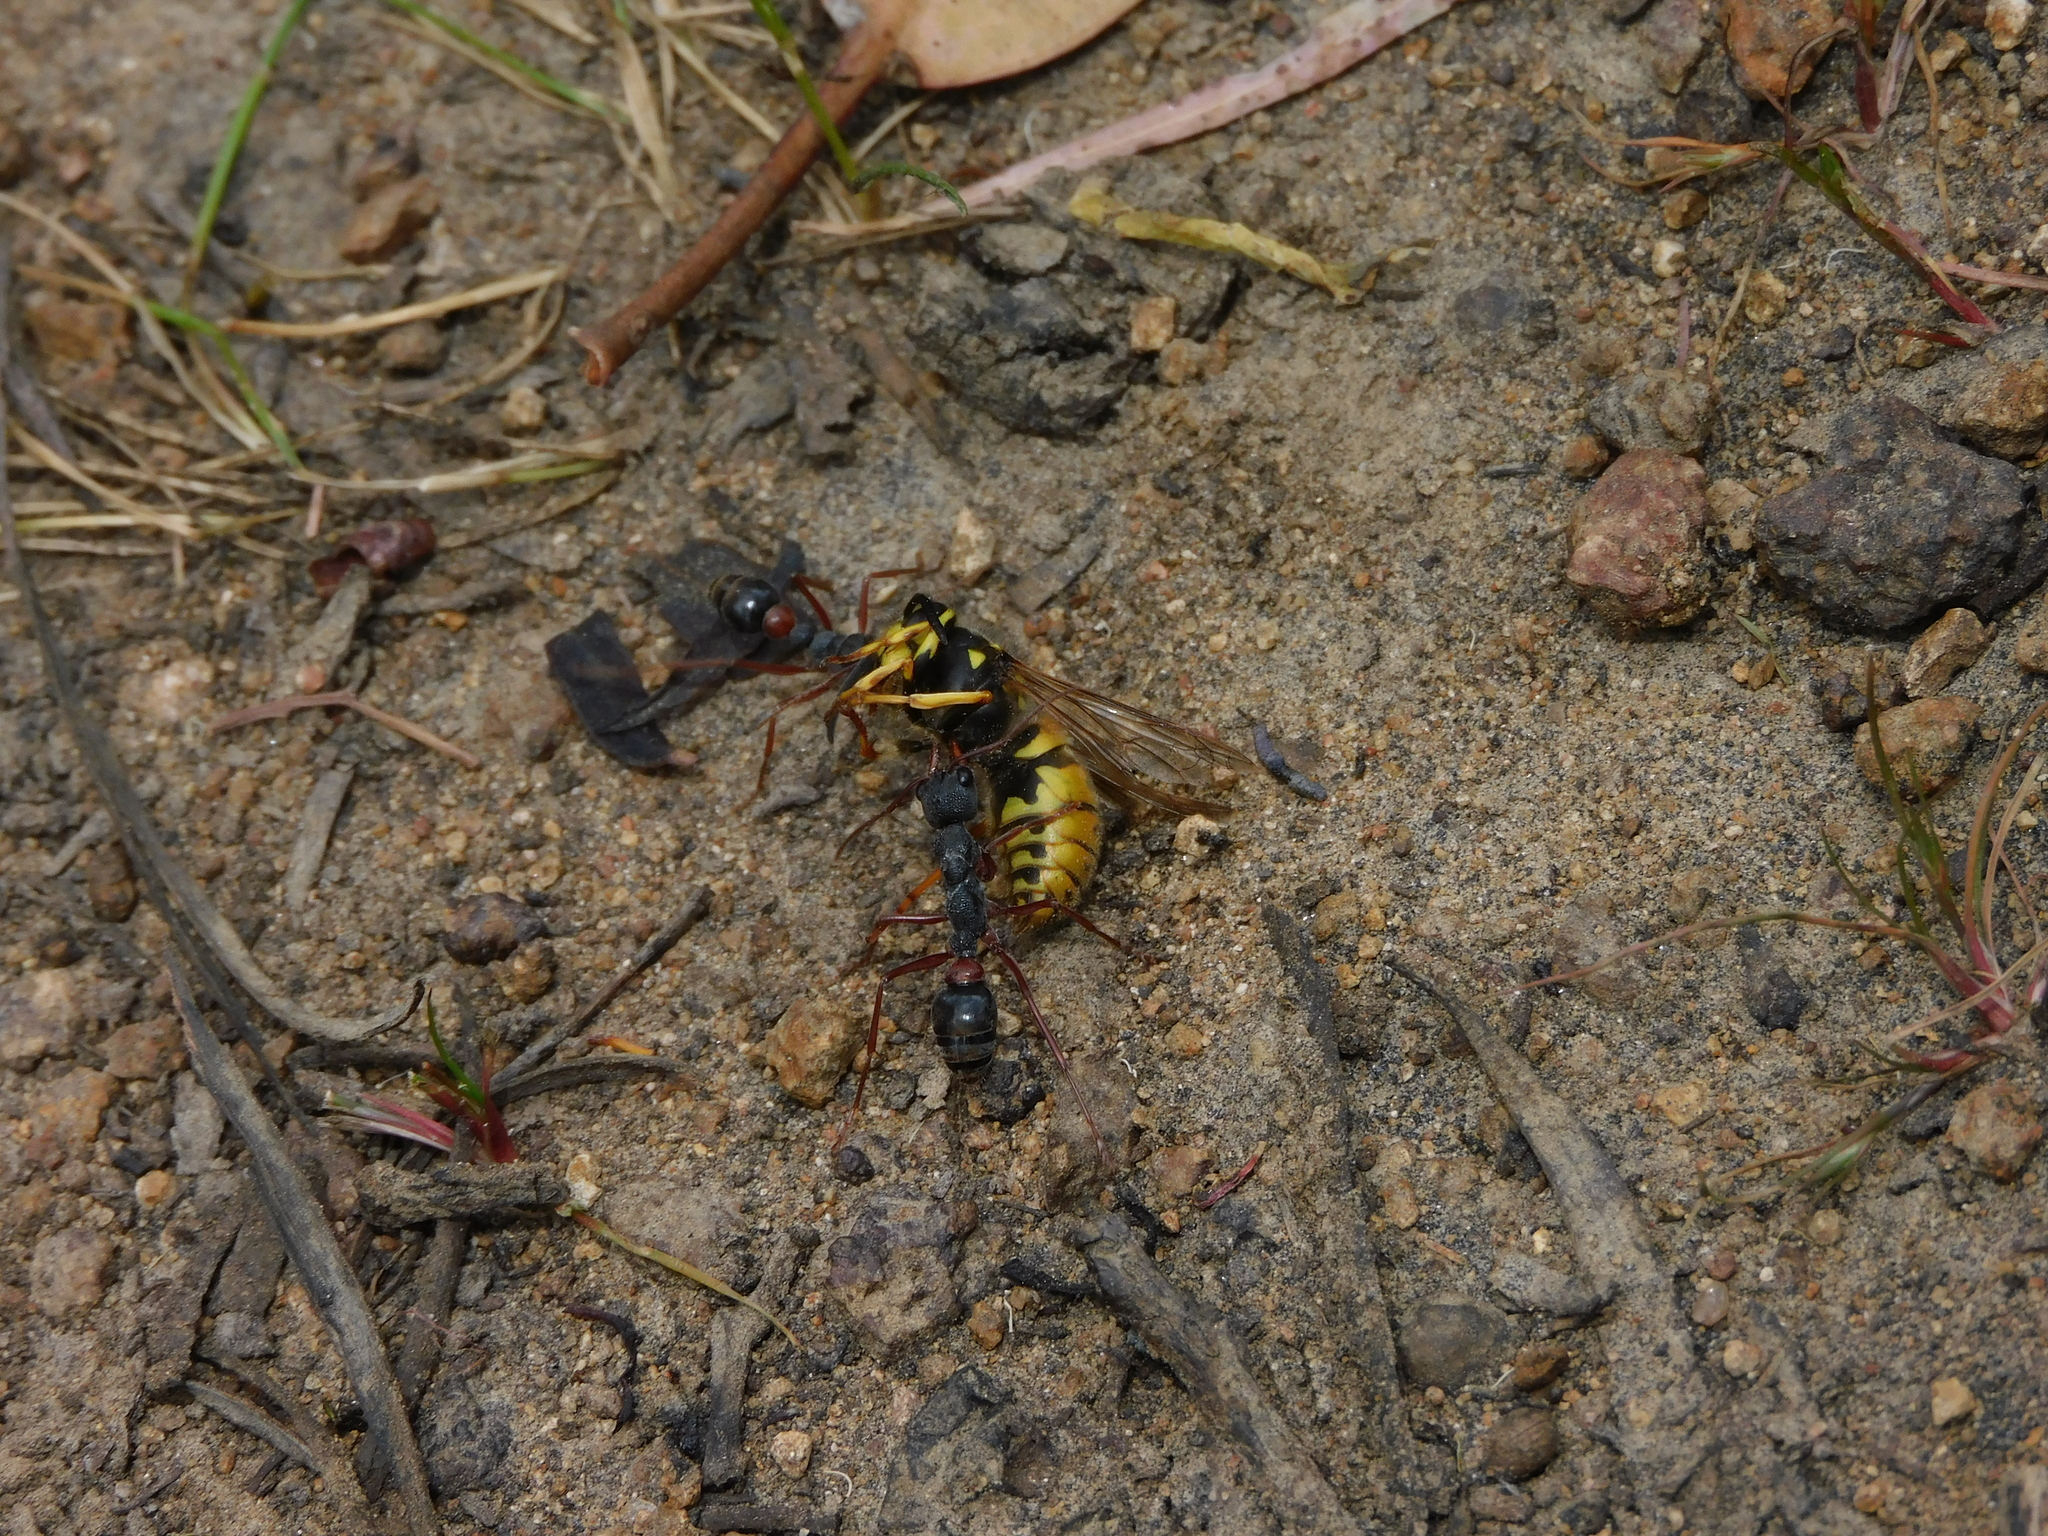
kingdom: Animalia
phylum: Arthropoda
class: Insecta
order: Hymenoptera
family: Formicidae
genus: Myrmecia
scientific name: Myrmecia esuriens
